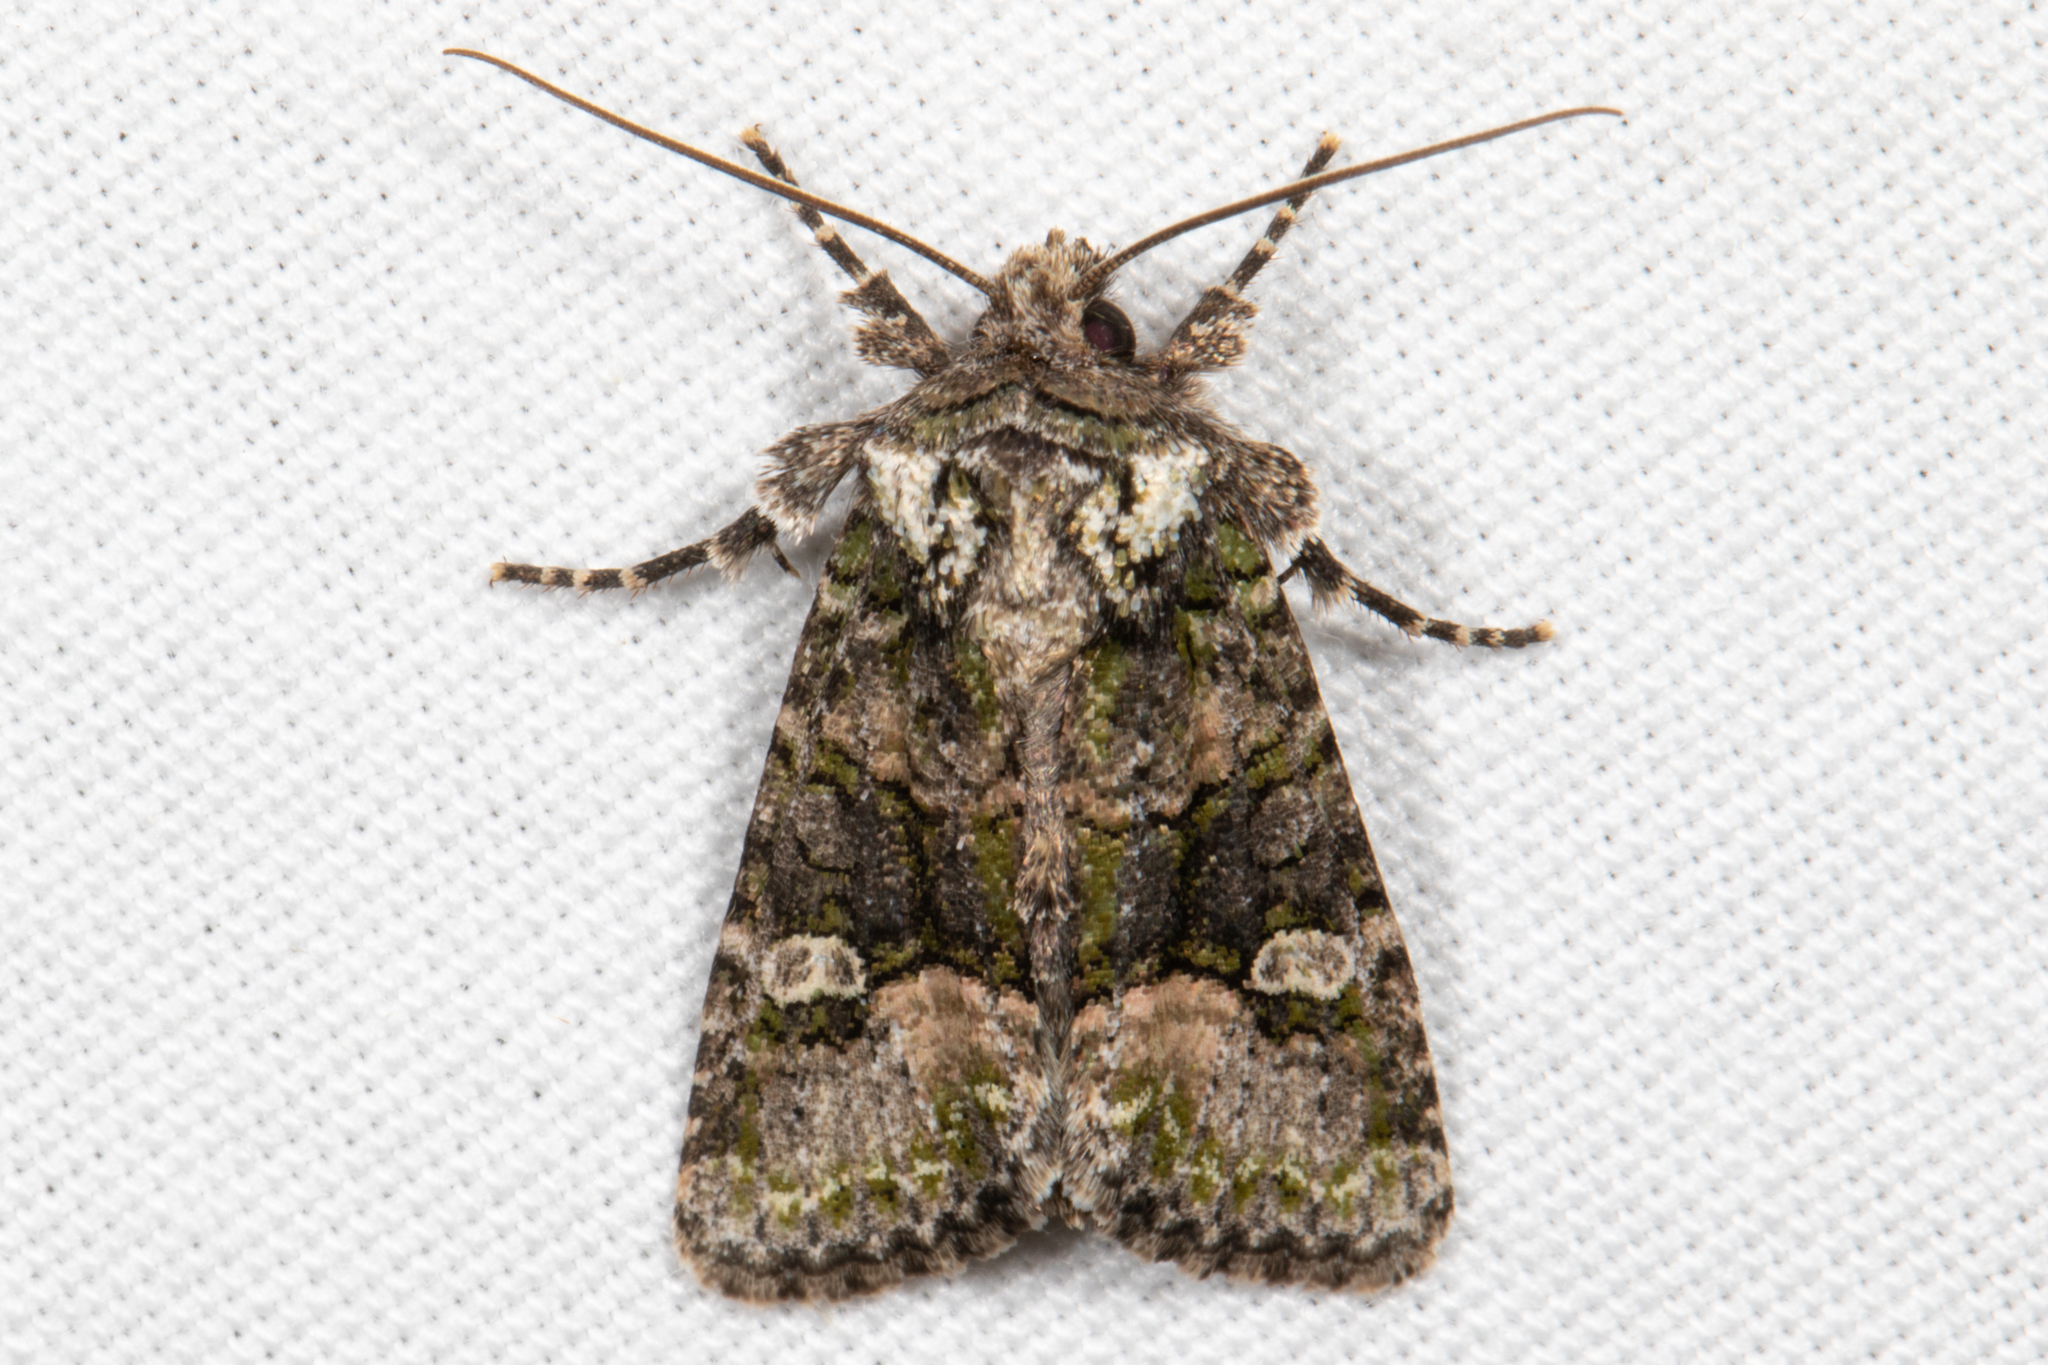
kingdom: Animalia
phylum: Arthropoda
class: Insecta
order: Lepidoptera
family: Noctuidae
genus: Lacinipolia
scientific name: Lacinipolia olivacea
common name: Olive arches moth
